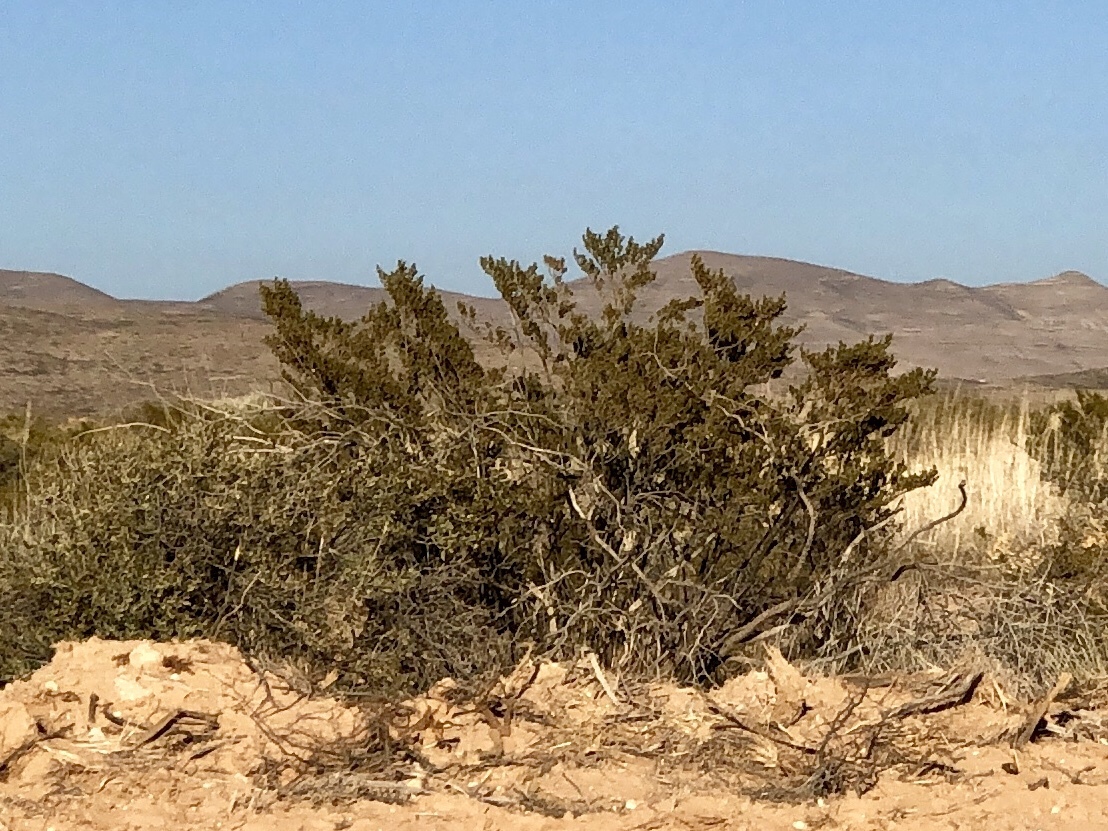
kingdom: Plantae
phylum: Tracheophyta
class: Magnoliopsida
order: Zygophyllales
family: Zygophyllaceae
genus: Larrea
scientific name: Larrea tridentata
